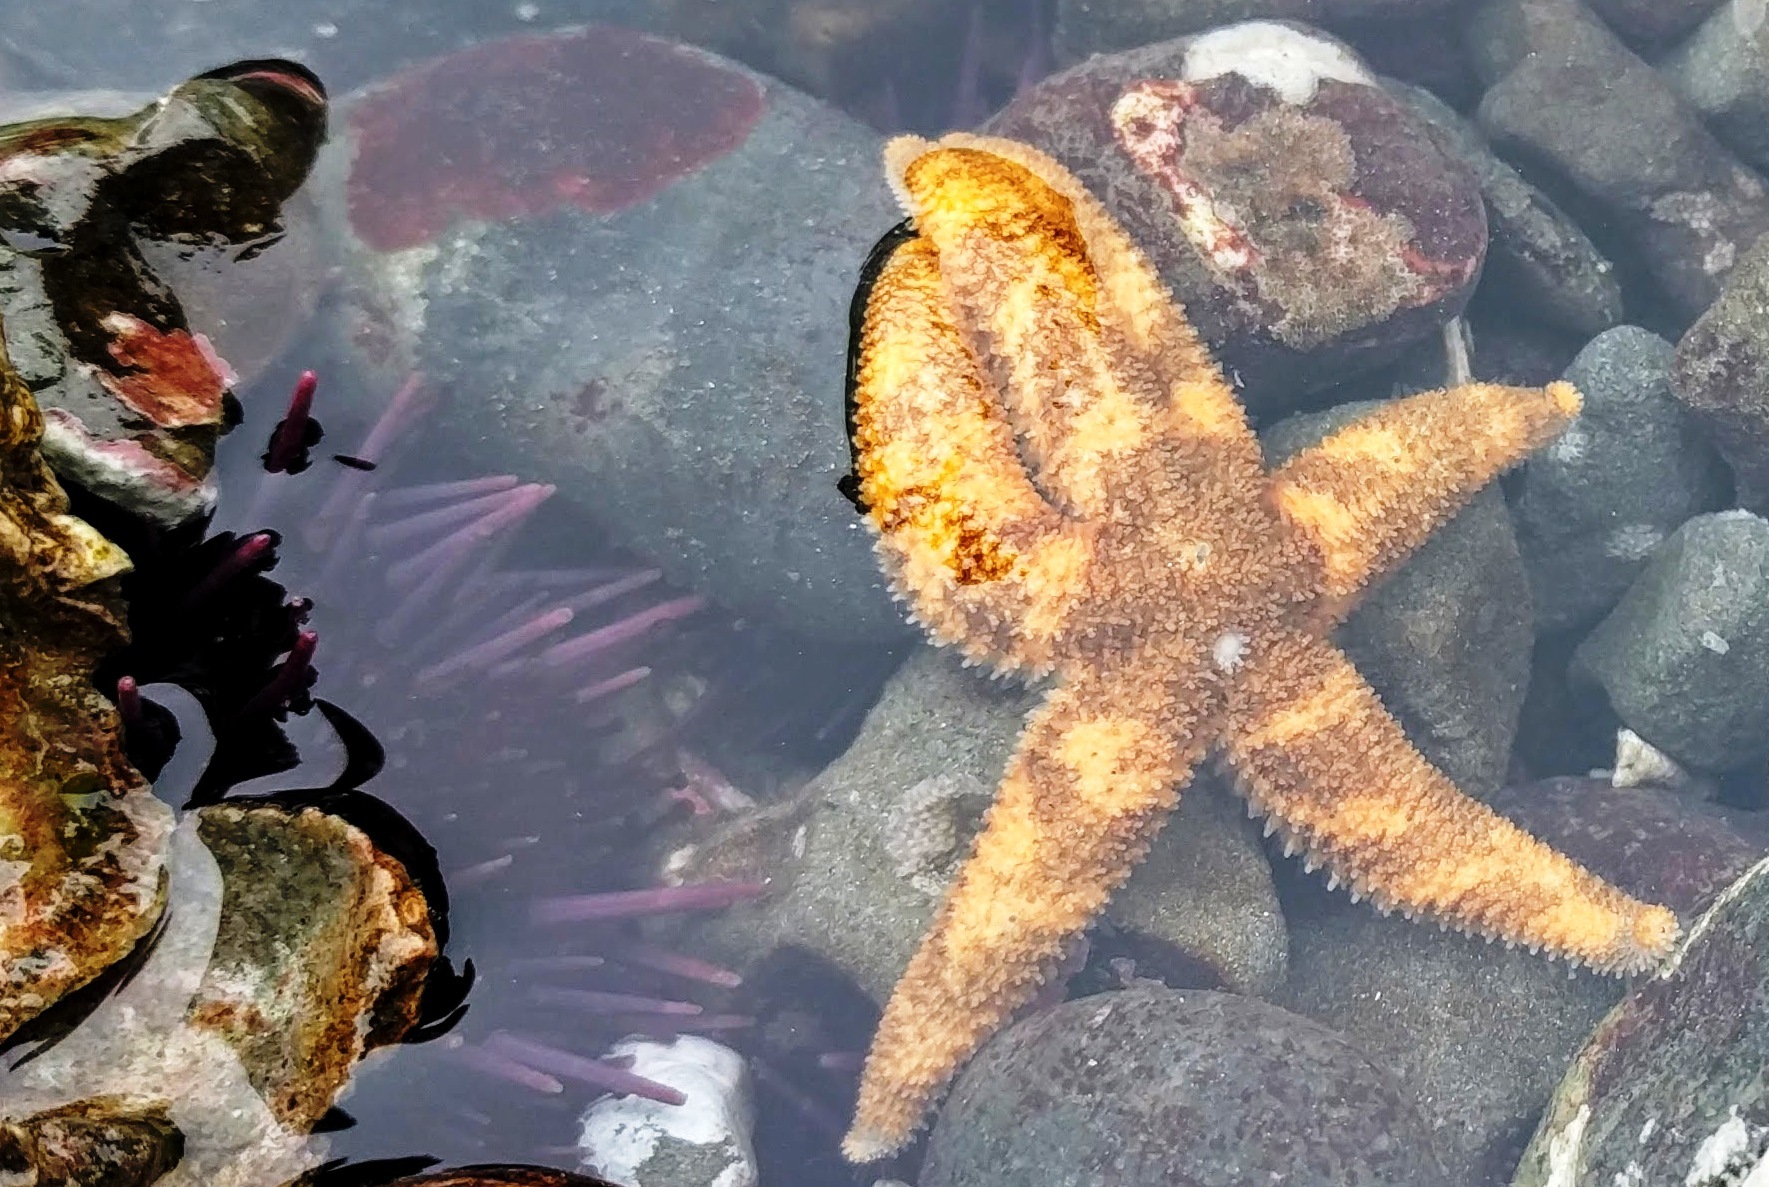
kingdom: Animalia
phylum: Echinodermata
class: Asteroidea
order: Forcipulatida
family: Asteriidae
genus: Evasterias
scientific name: Evasterias troschelii
